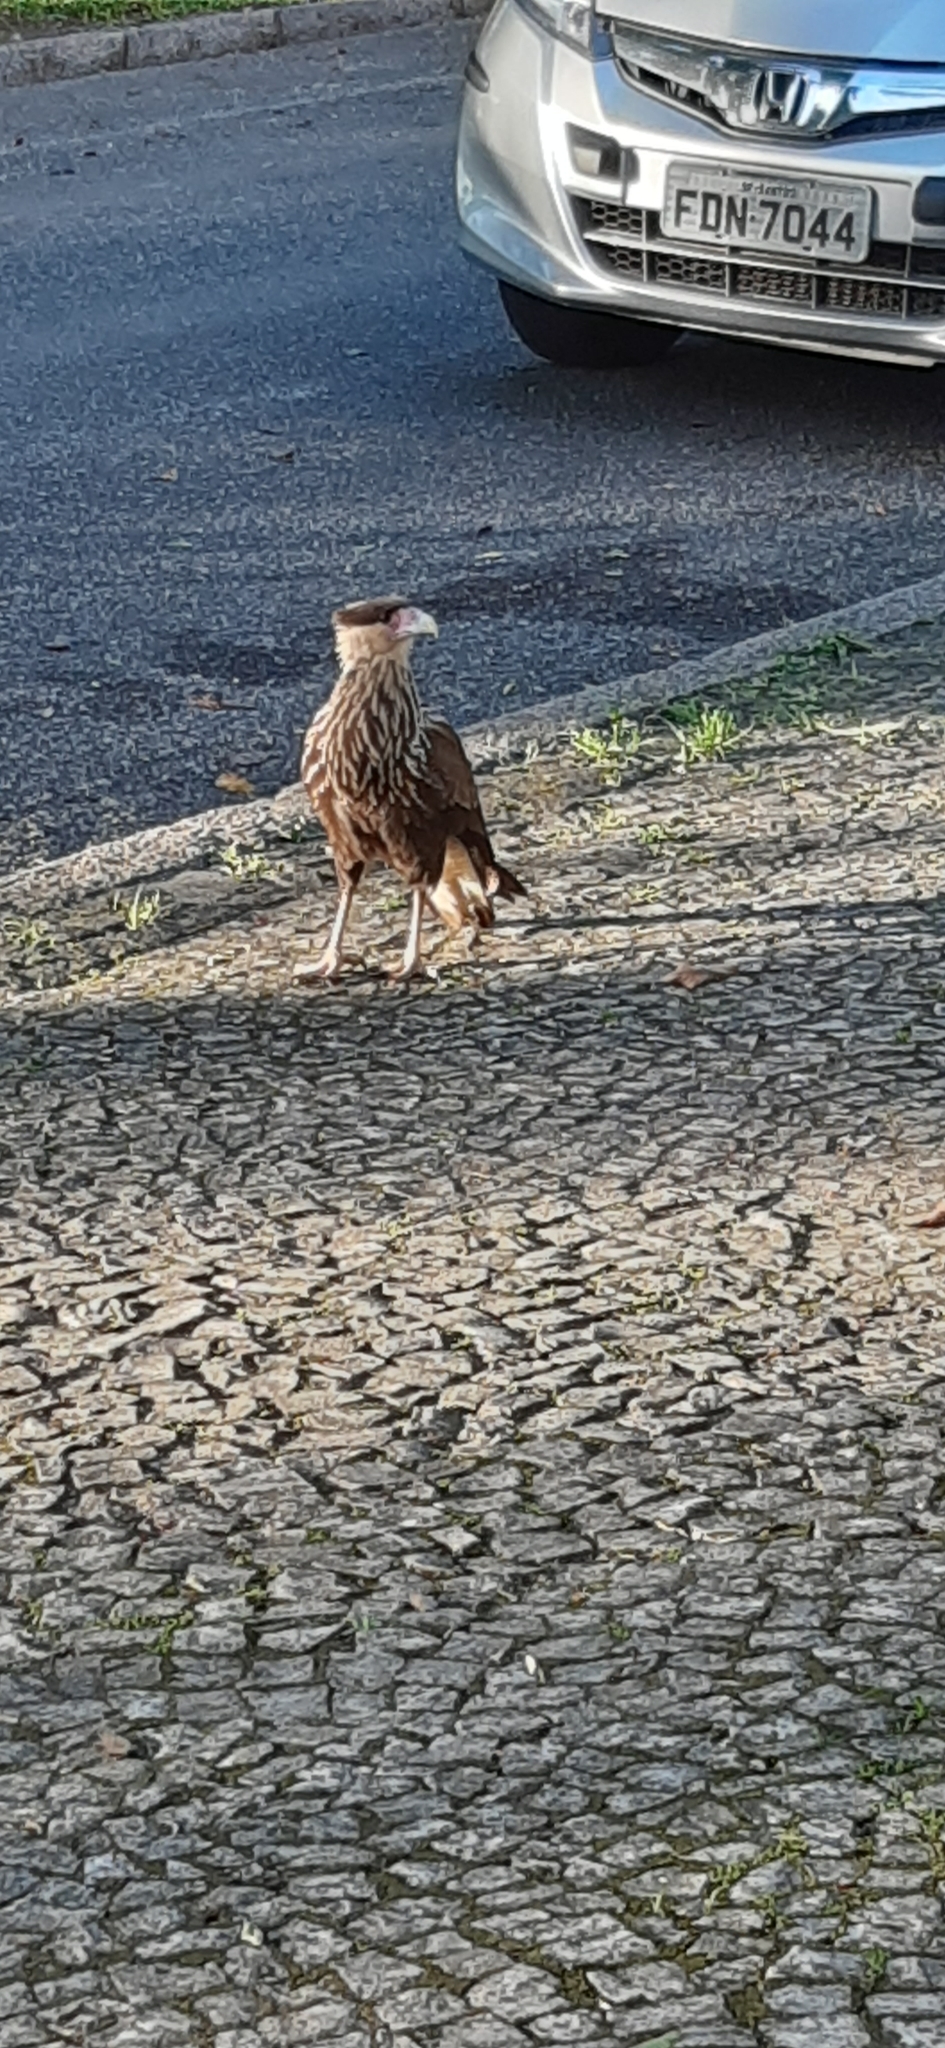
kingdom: Animalia
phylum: Chordata
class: Aves
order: Falconiformes
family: Falconidae
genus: Caracara
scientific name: Caracara plancus
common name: Southern caracara
